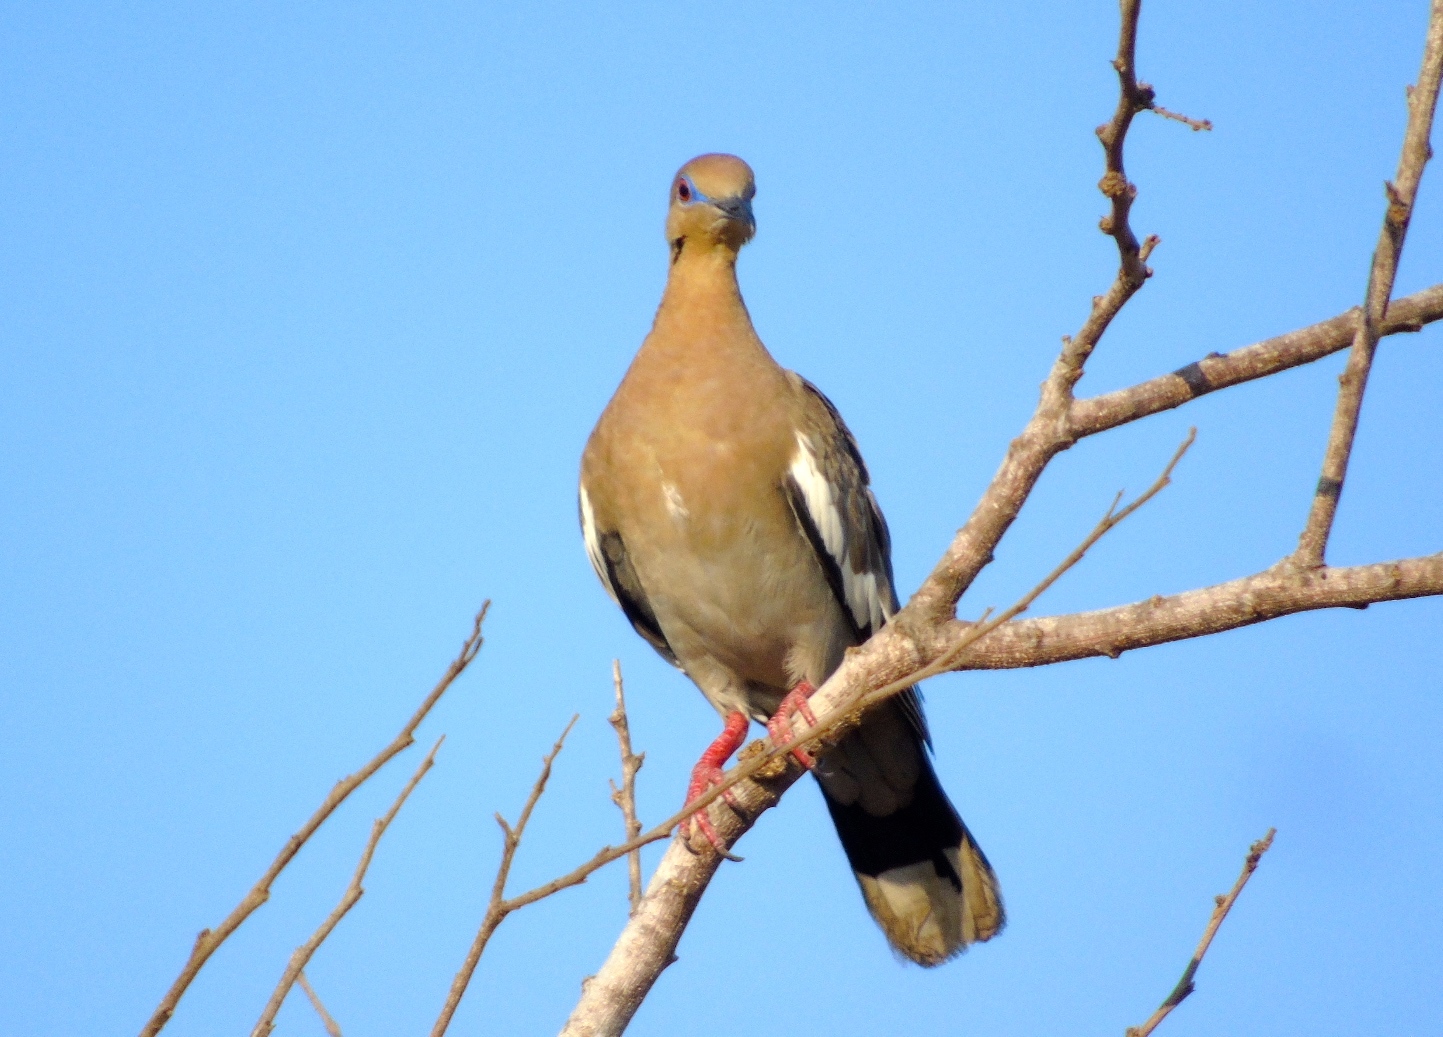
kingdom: Animalia
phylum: Chordata
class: Aves
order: Columbiformes
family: Columbidae
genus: Zenaida
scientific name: Zenaida asiatica
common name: White-winged dove
